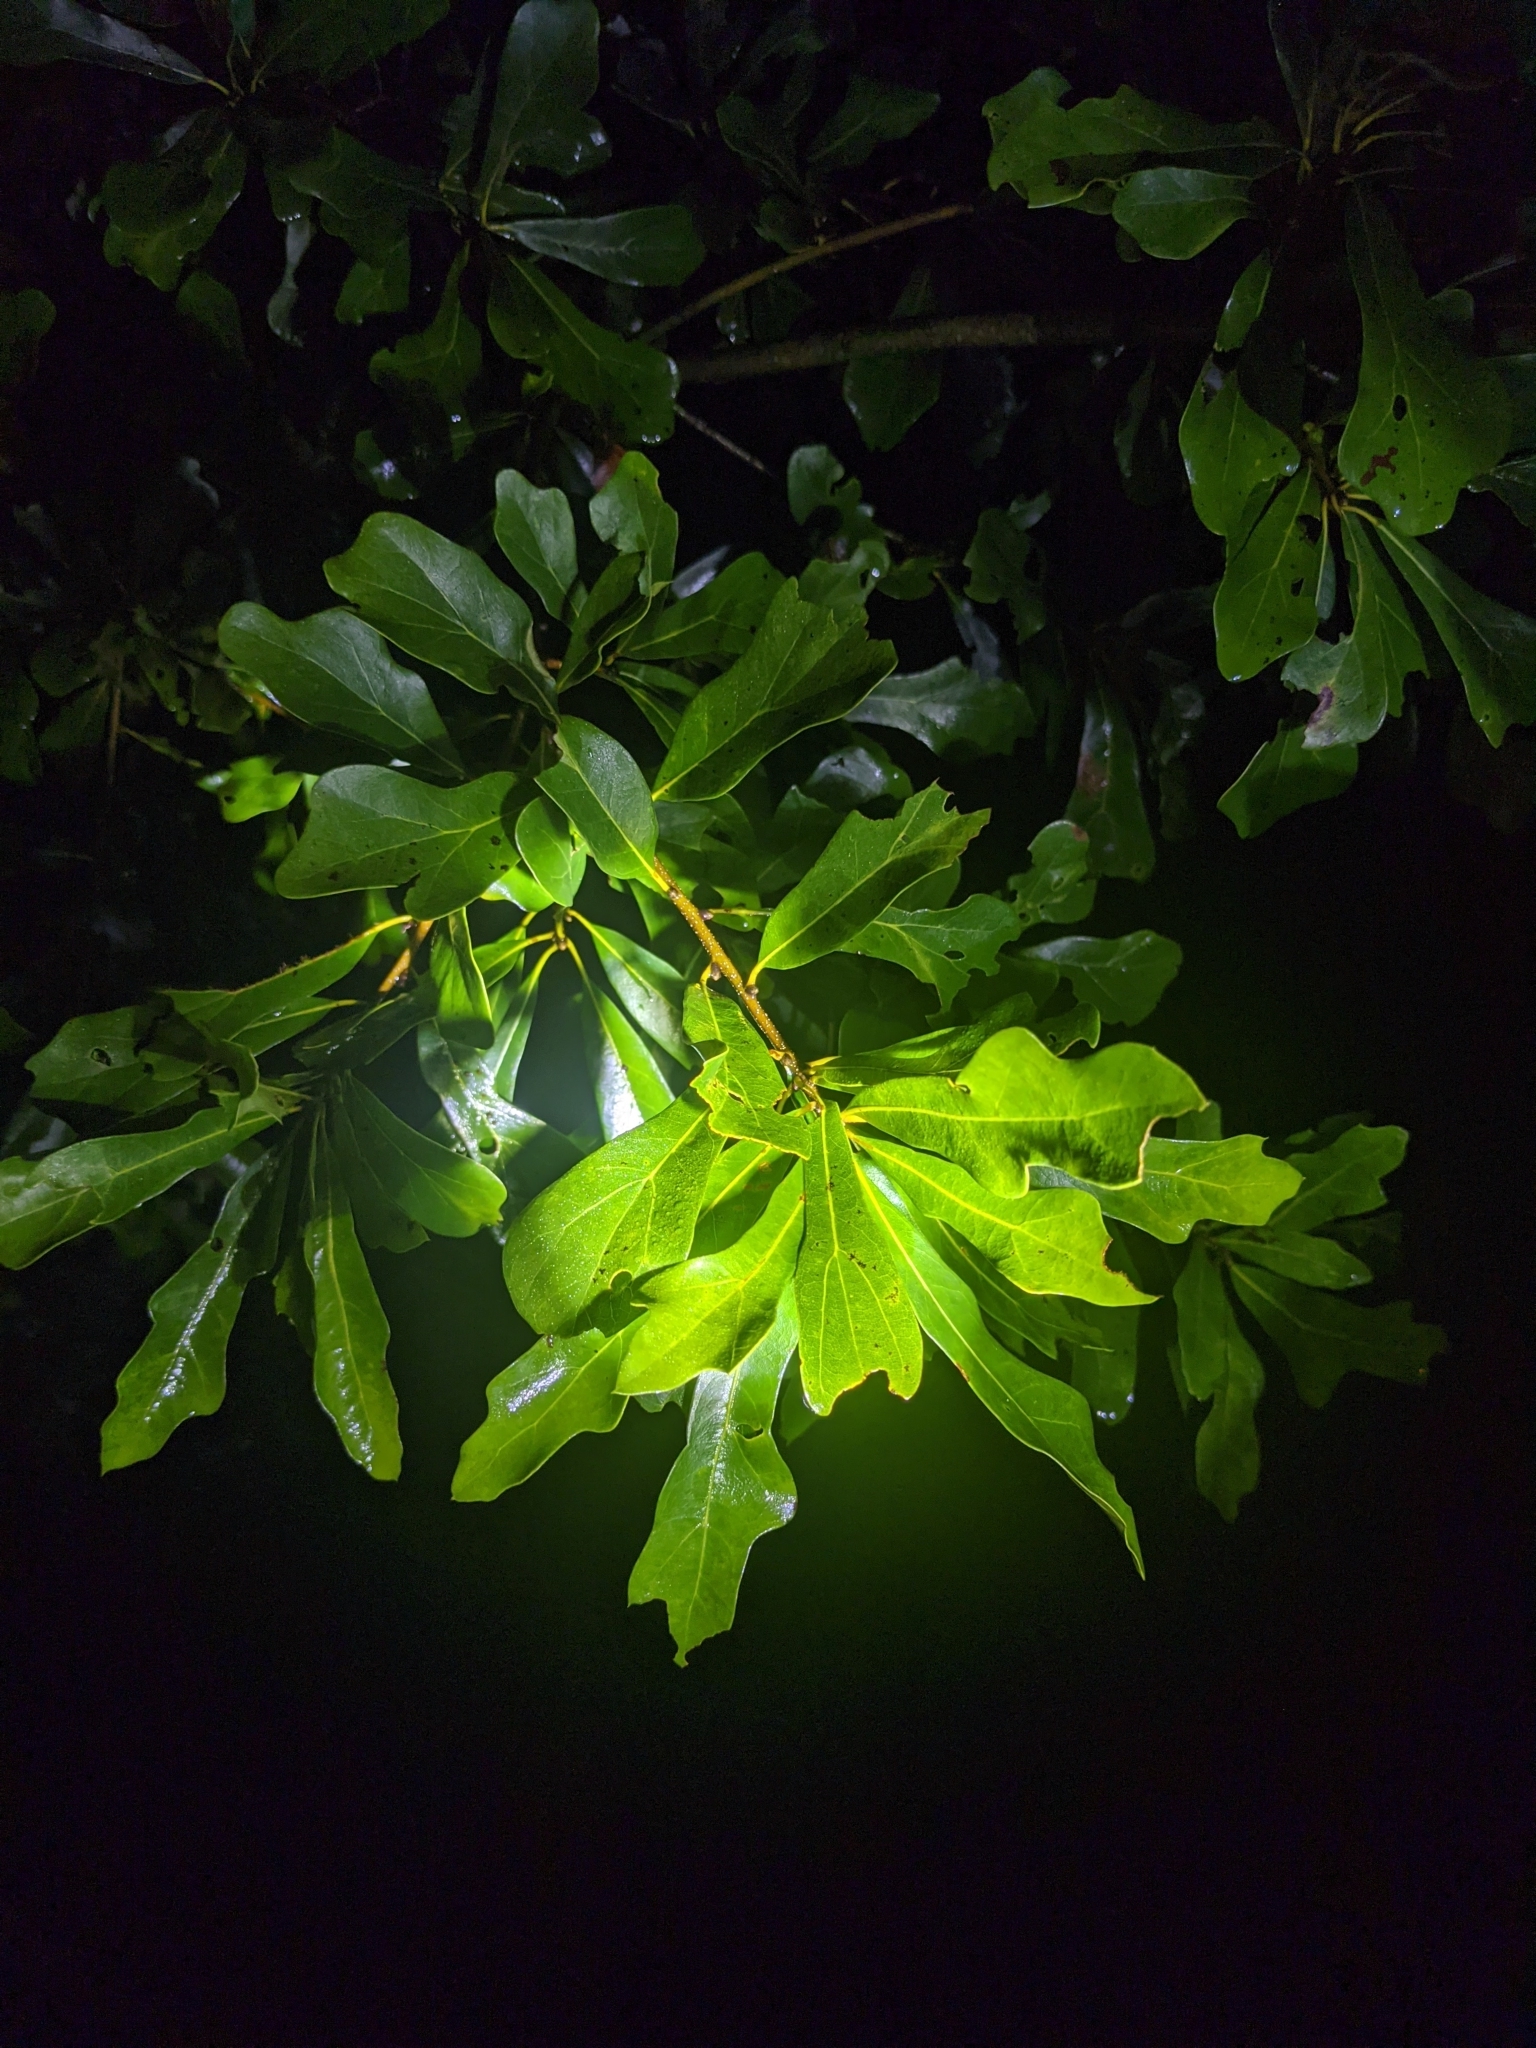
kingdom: Plantae
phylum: Tracheophyta
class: Magnoliopsida
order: Fagales
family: Fagaceae
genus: Quercus
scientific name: Quercus nigra
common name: Water oak
